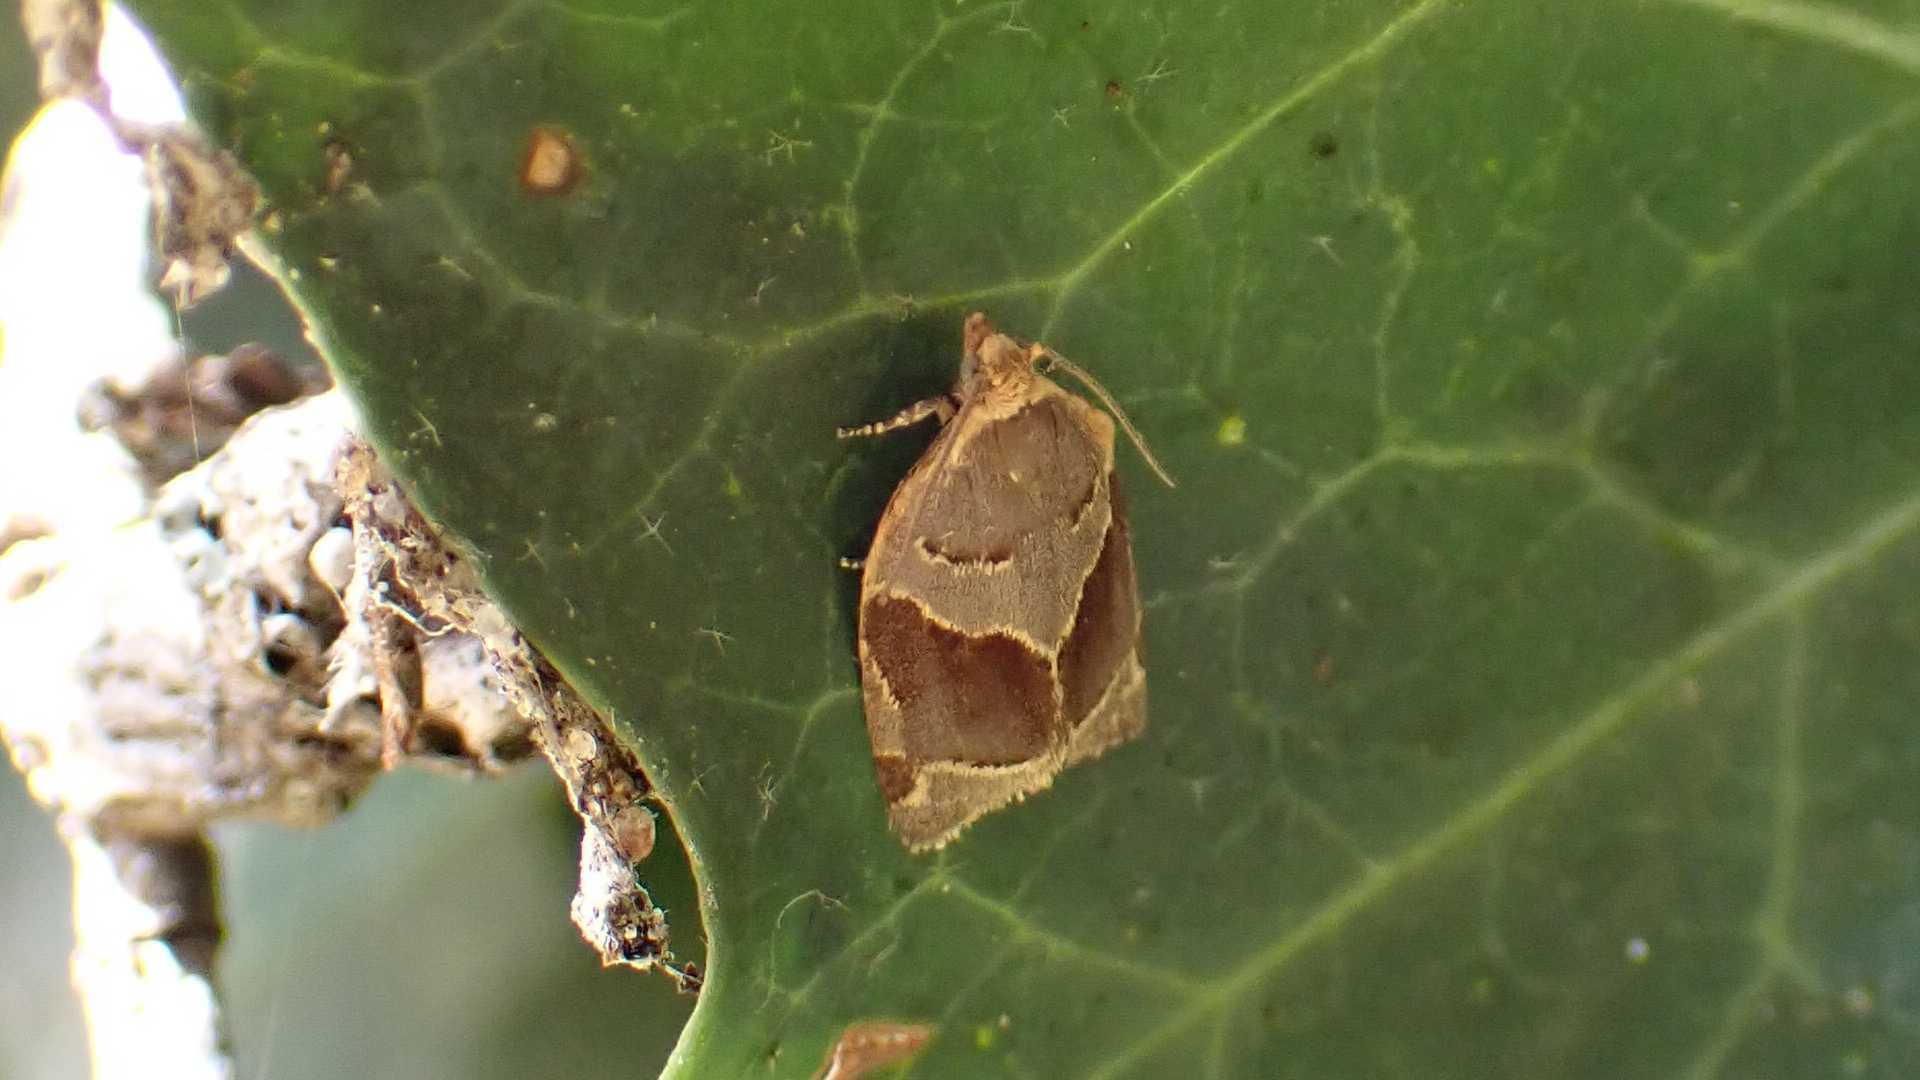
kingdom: Animalia
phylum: Arthropoda
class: Insecta
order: Lepidoptera
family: Tortricidae
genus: Clepsis
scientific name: Clepsis dumicolana
